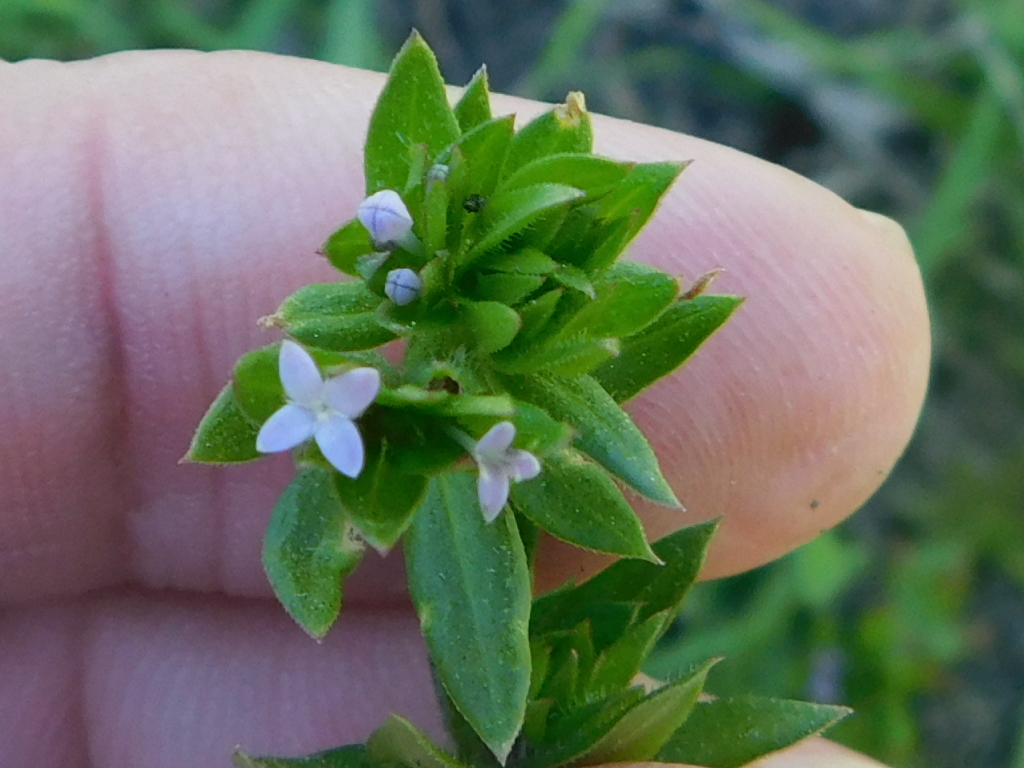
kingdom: Plantae
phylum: Tracheophyta
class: Magnoliopsida
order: Gentianales
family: Rubiaceae
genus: Sherardia
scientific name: Sherardia arvensis
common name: Field madder
